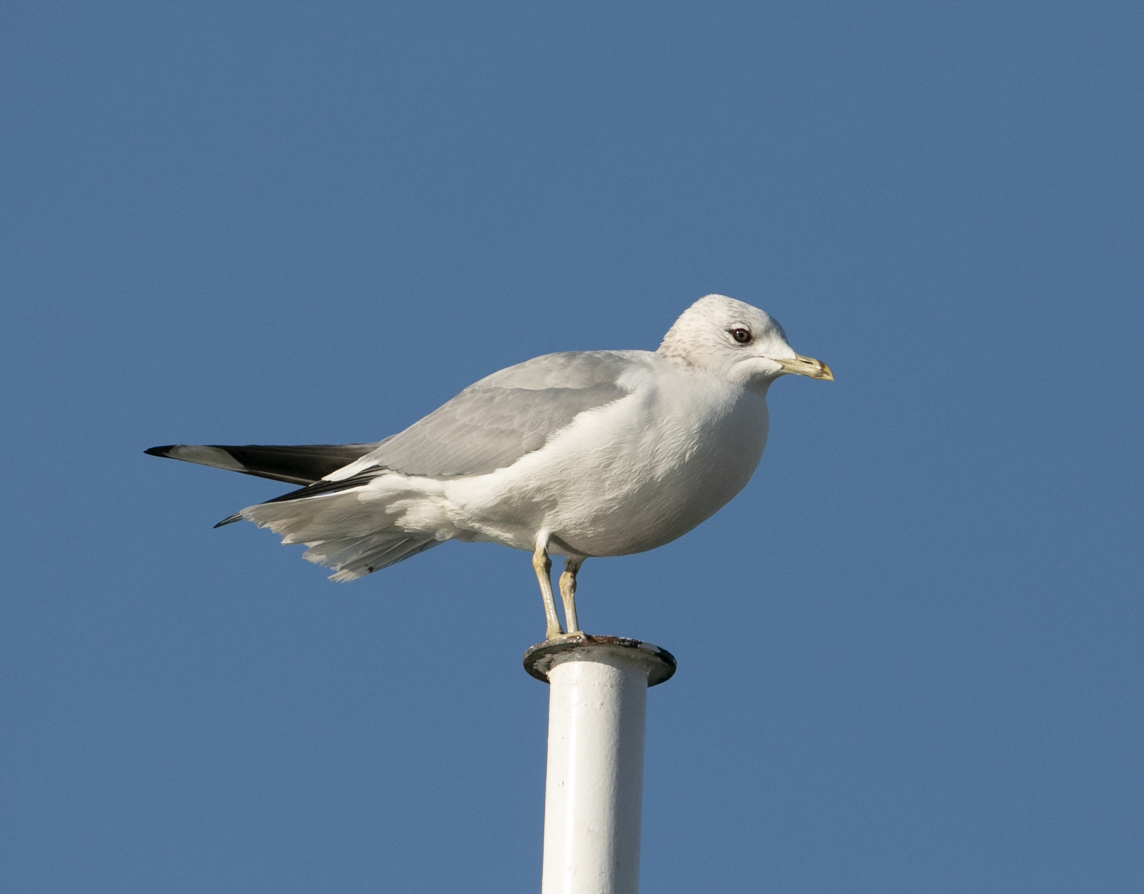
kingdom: Animalia
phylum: Chordata
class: Aves
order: Charadriiformes
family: Laridae
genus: Larus
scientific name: Larus canus
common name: Mew gull
